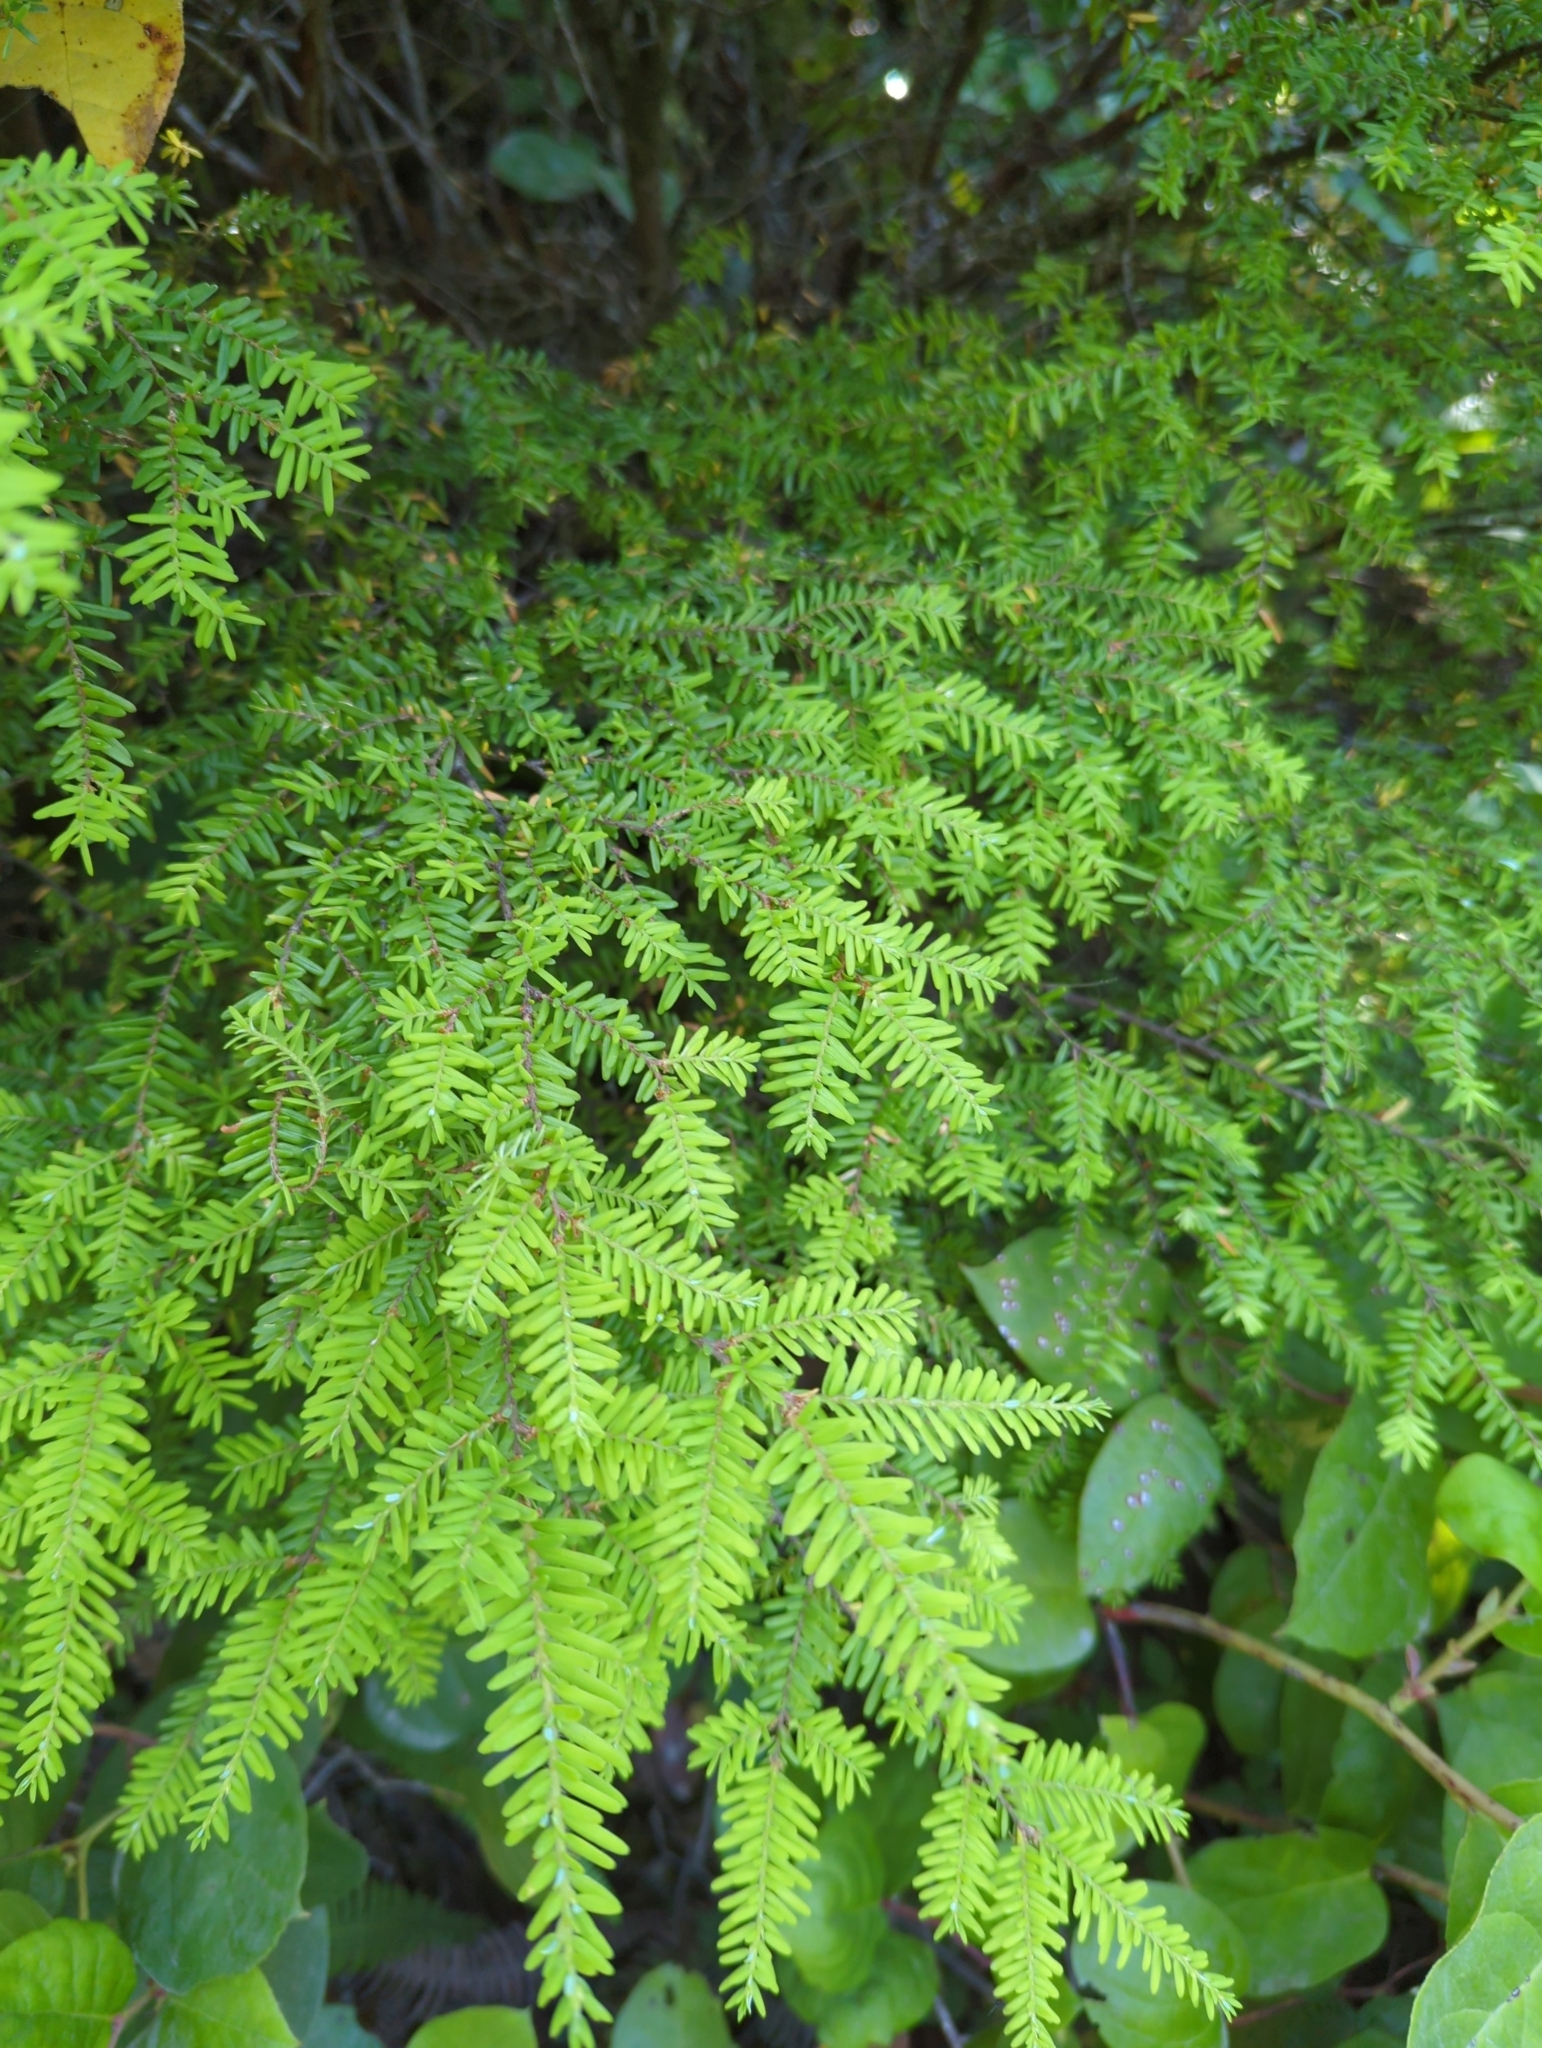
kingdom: Plantae
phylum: Tracheophyta
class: Pinopsida
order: Pinales
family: Pinaceae
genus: Tsuga
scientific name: Tsuga heterophylla
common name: Western hemlock
